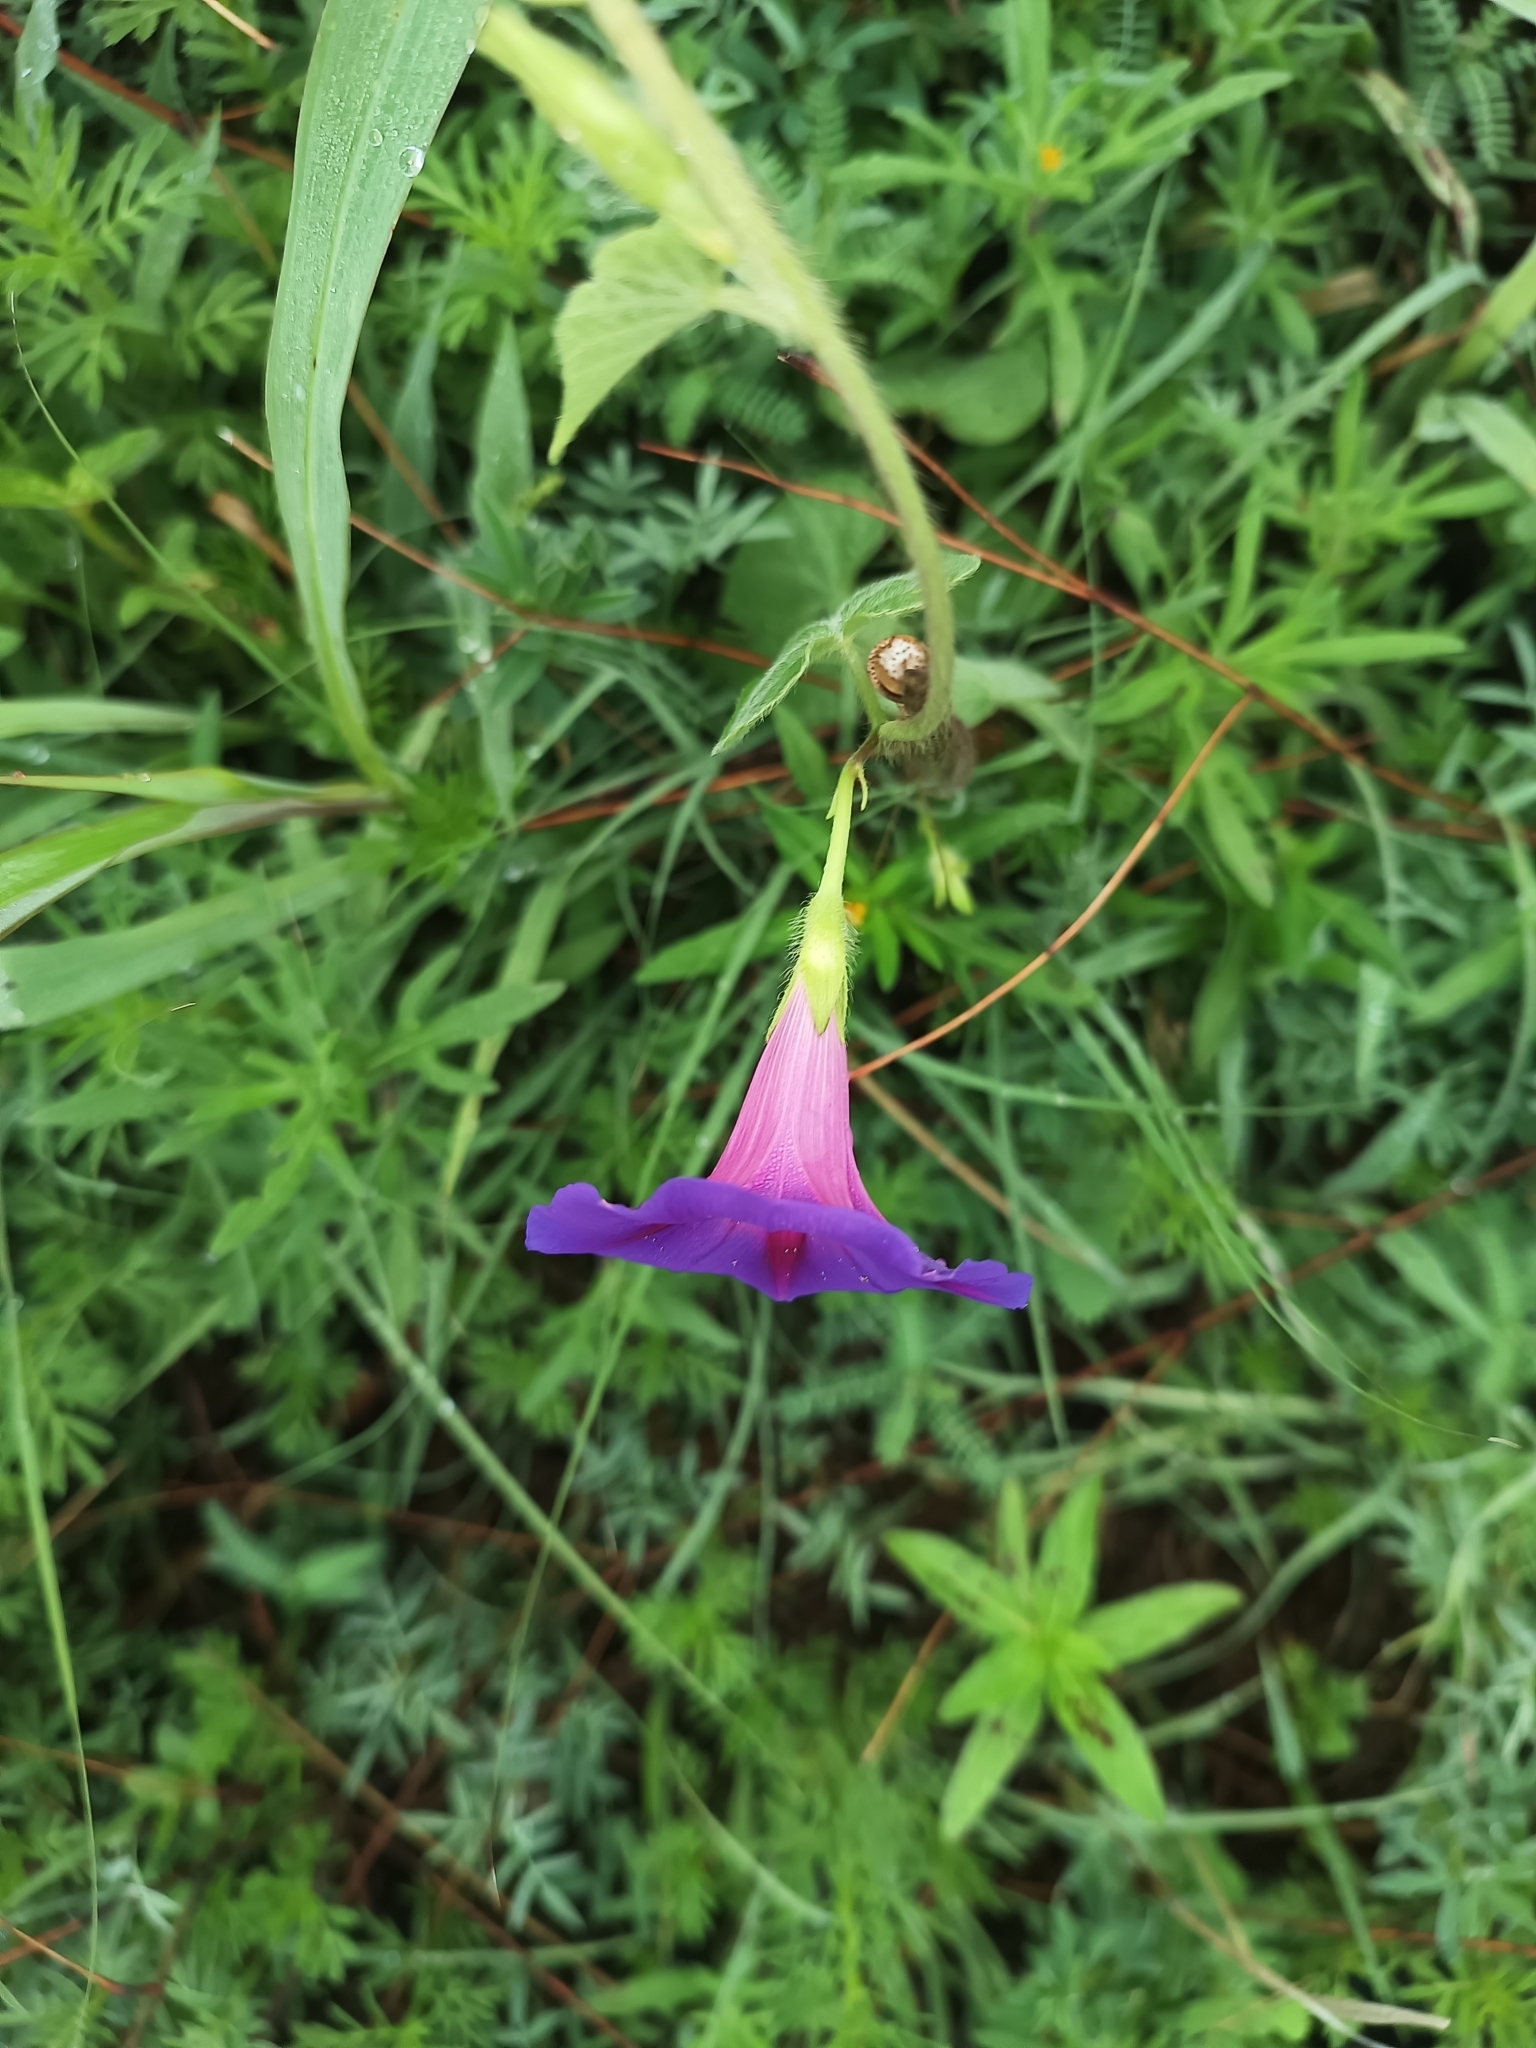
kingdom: Plantae
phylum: Tracheophyta
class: Magnoliopsida
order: Solanales
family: Convolvulaceae
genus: Ipomoea
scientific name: Ipomoea purpurea
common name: Common morning-glory
